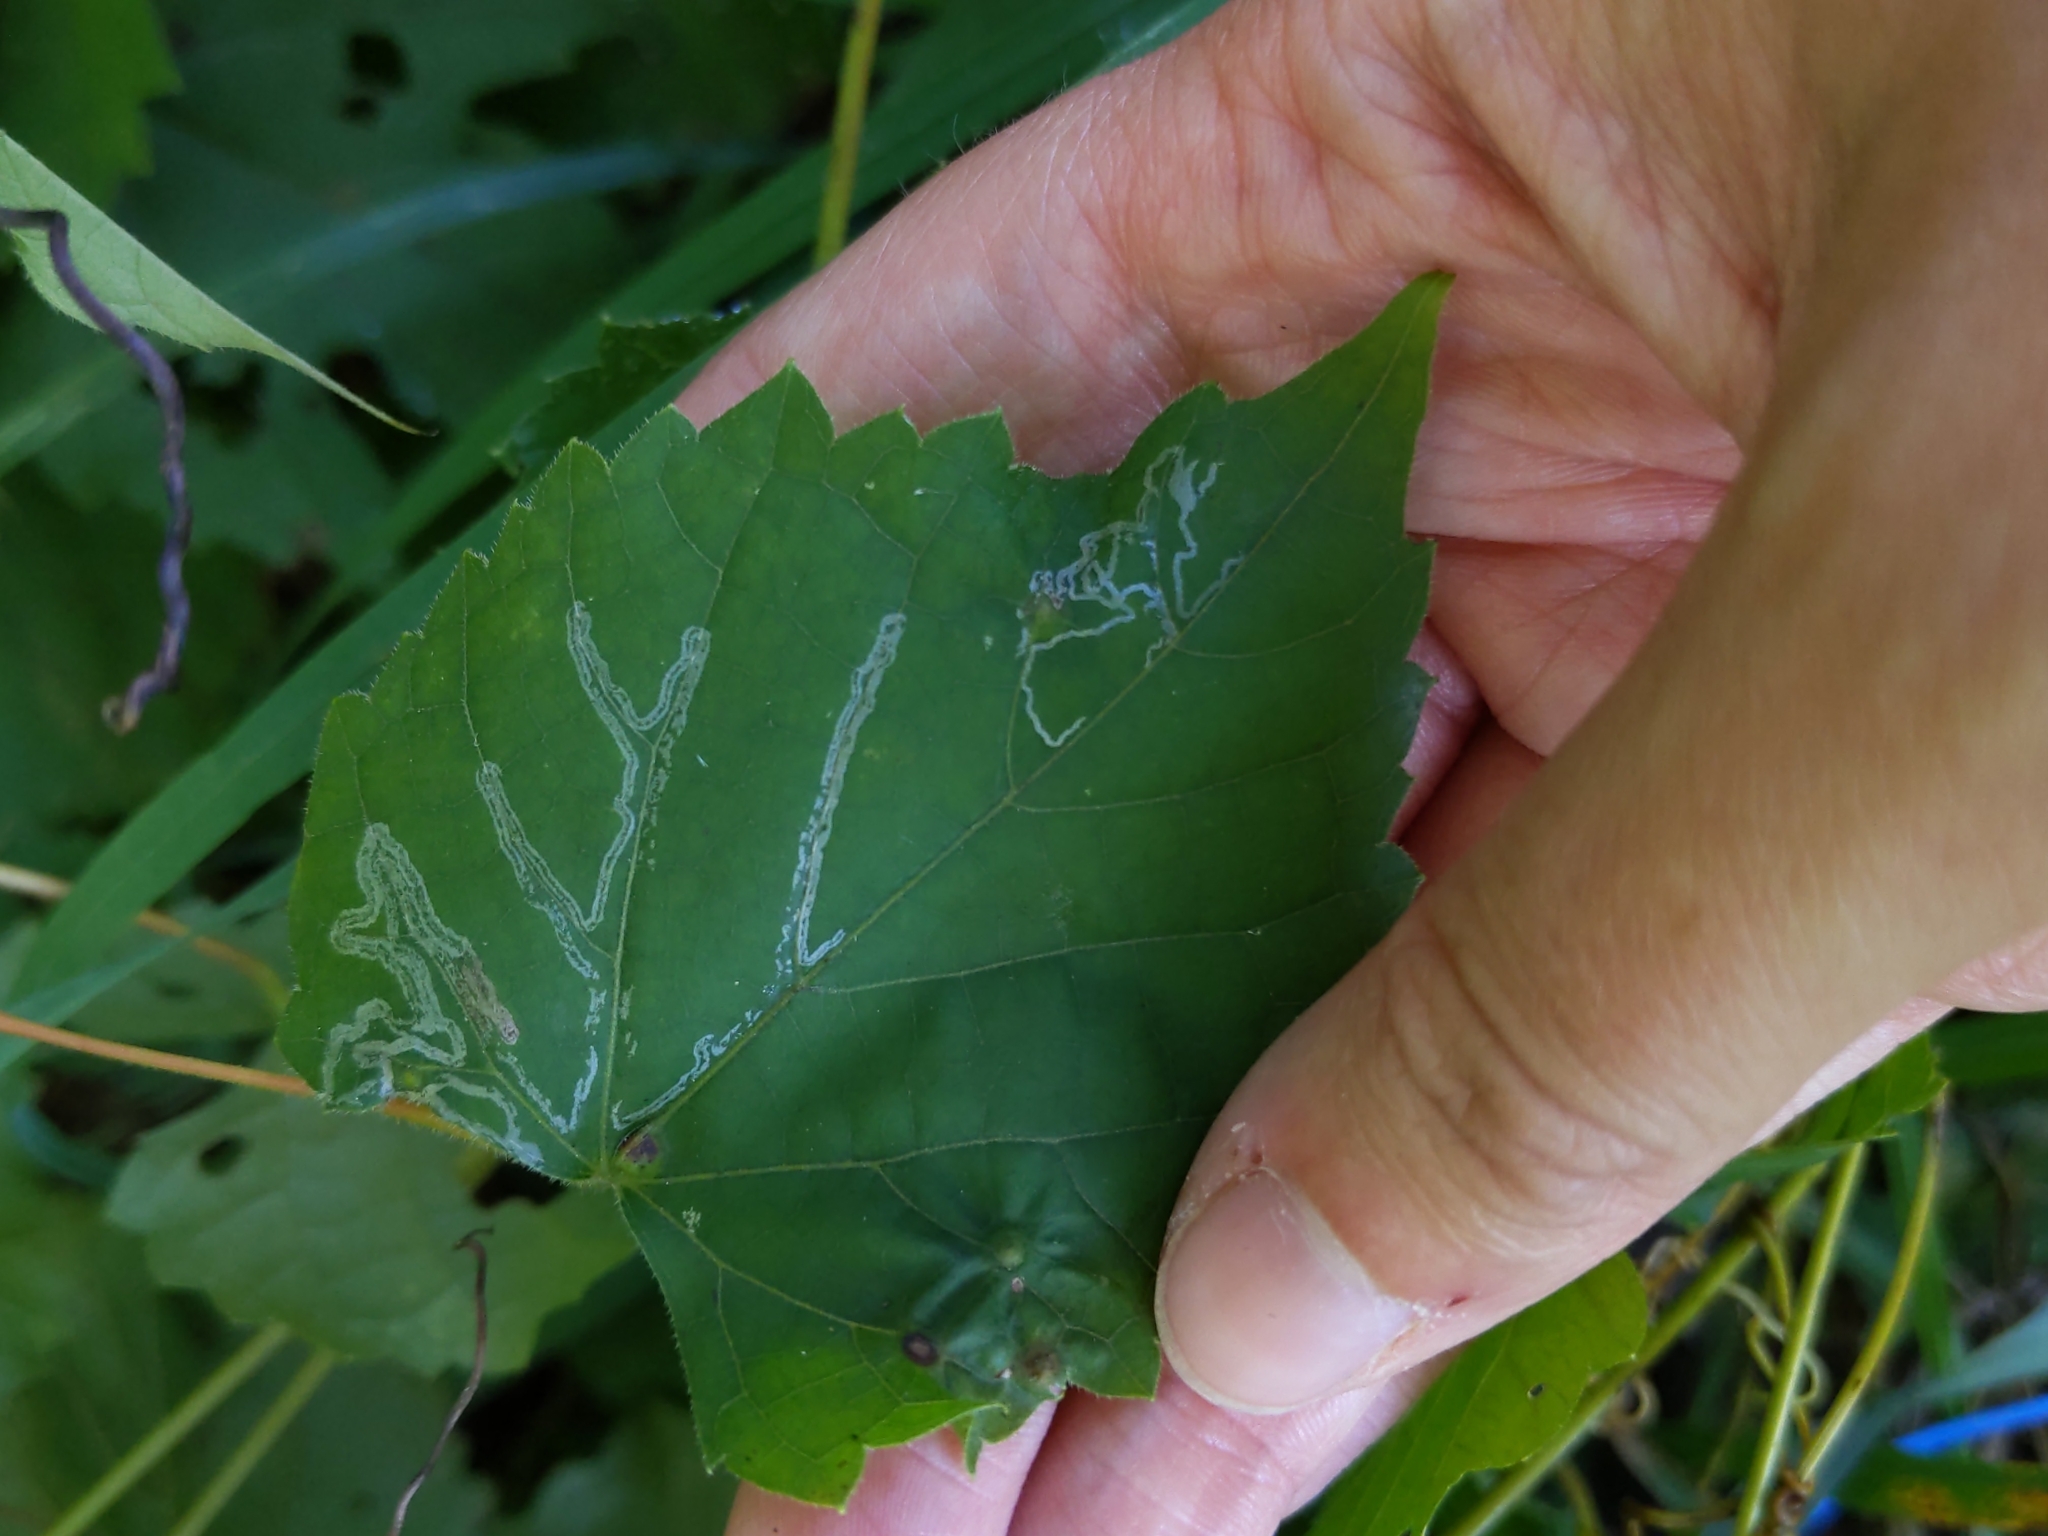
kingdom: Animalia
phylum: Arthropoda
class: Insecta
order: Lepidoptera
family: Gracillariidae
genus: Phyllocnistis
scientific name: Phyllocnistis vitegenella
